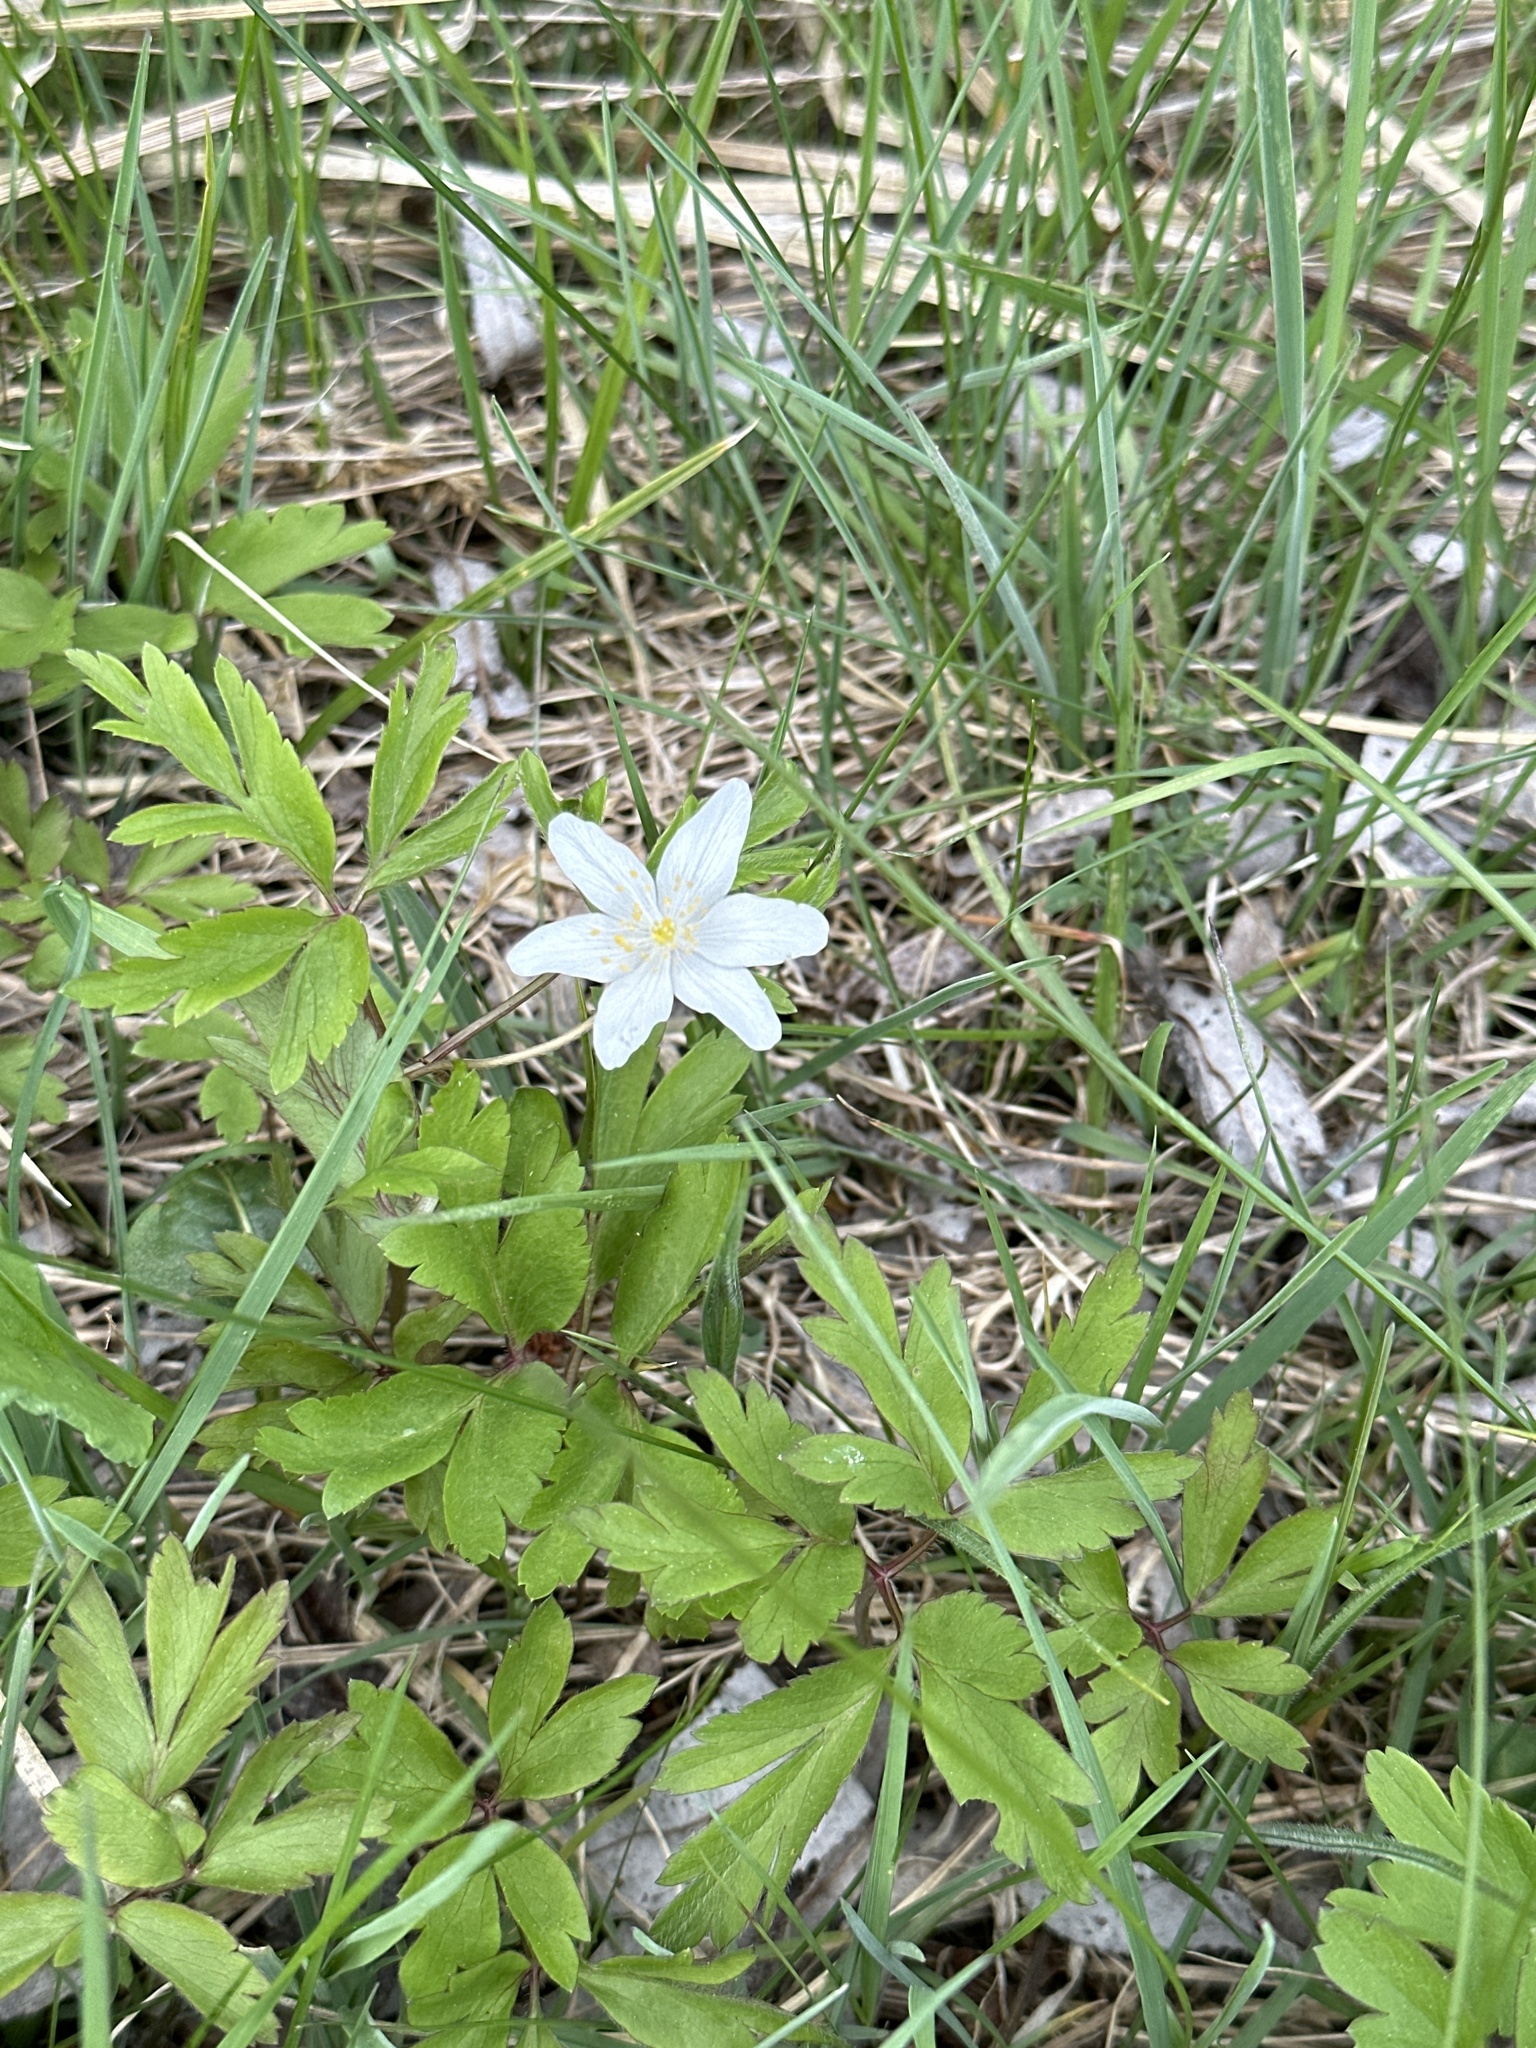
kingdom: Plantae
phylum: Tracheophyta
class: Magnoliopsida
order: Ranunculales
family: Ranunculaceae
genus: Anemone
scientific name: Anemone nemorosa
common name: Wood anemone
